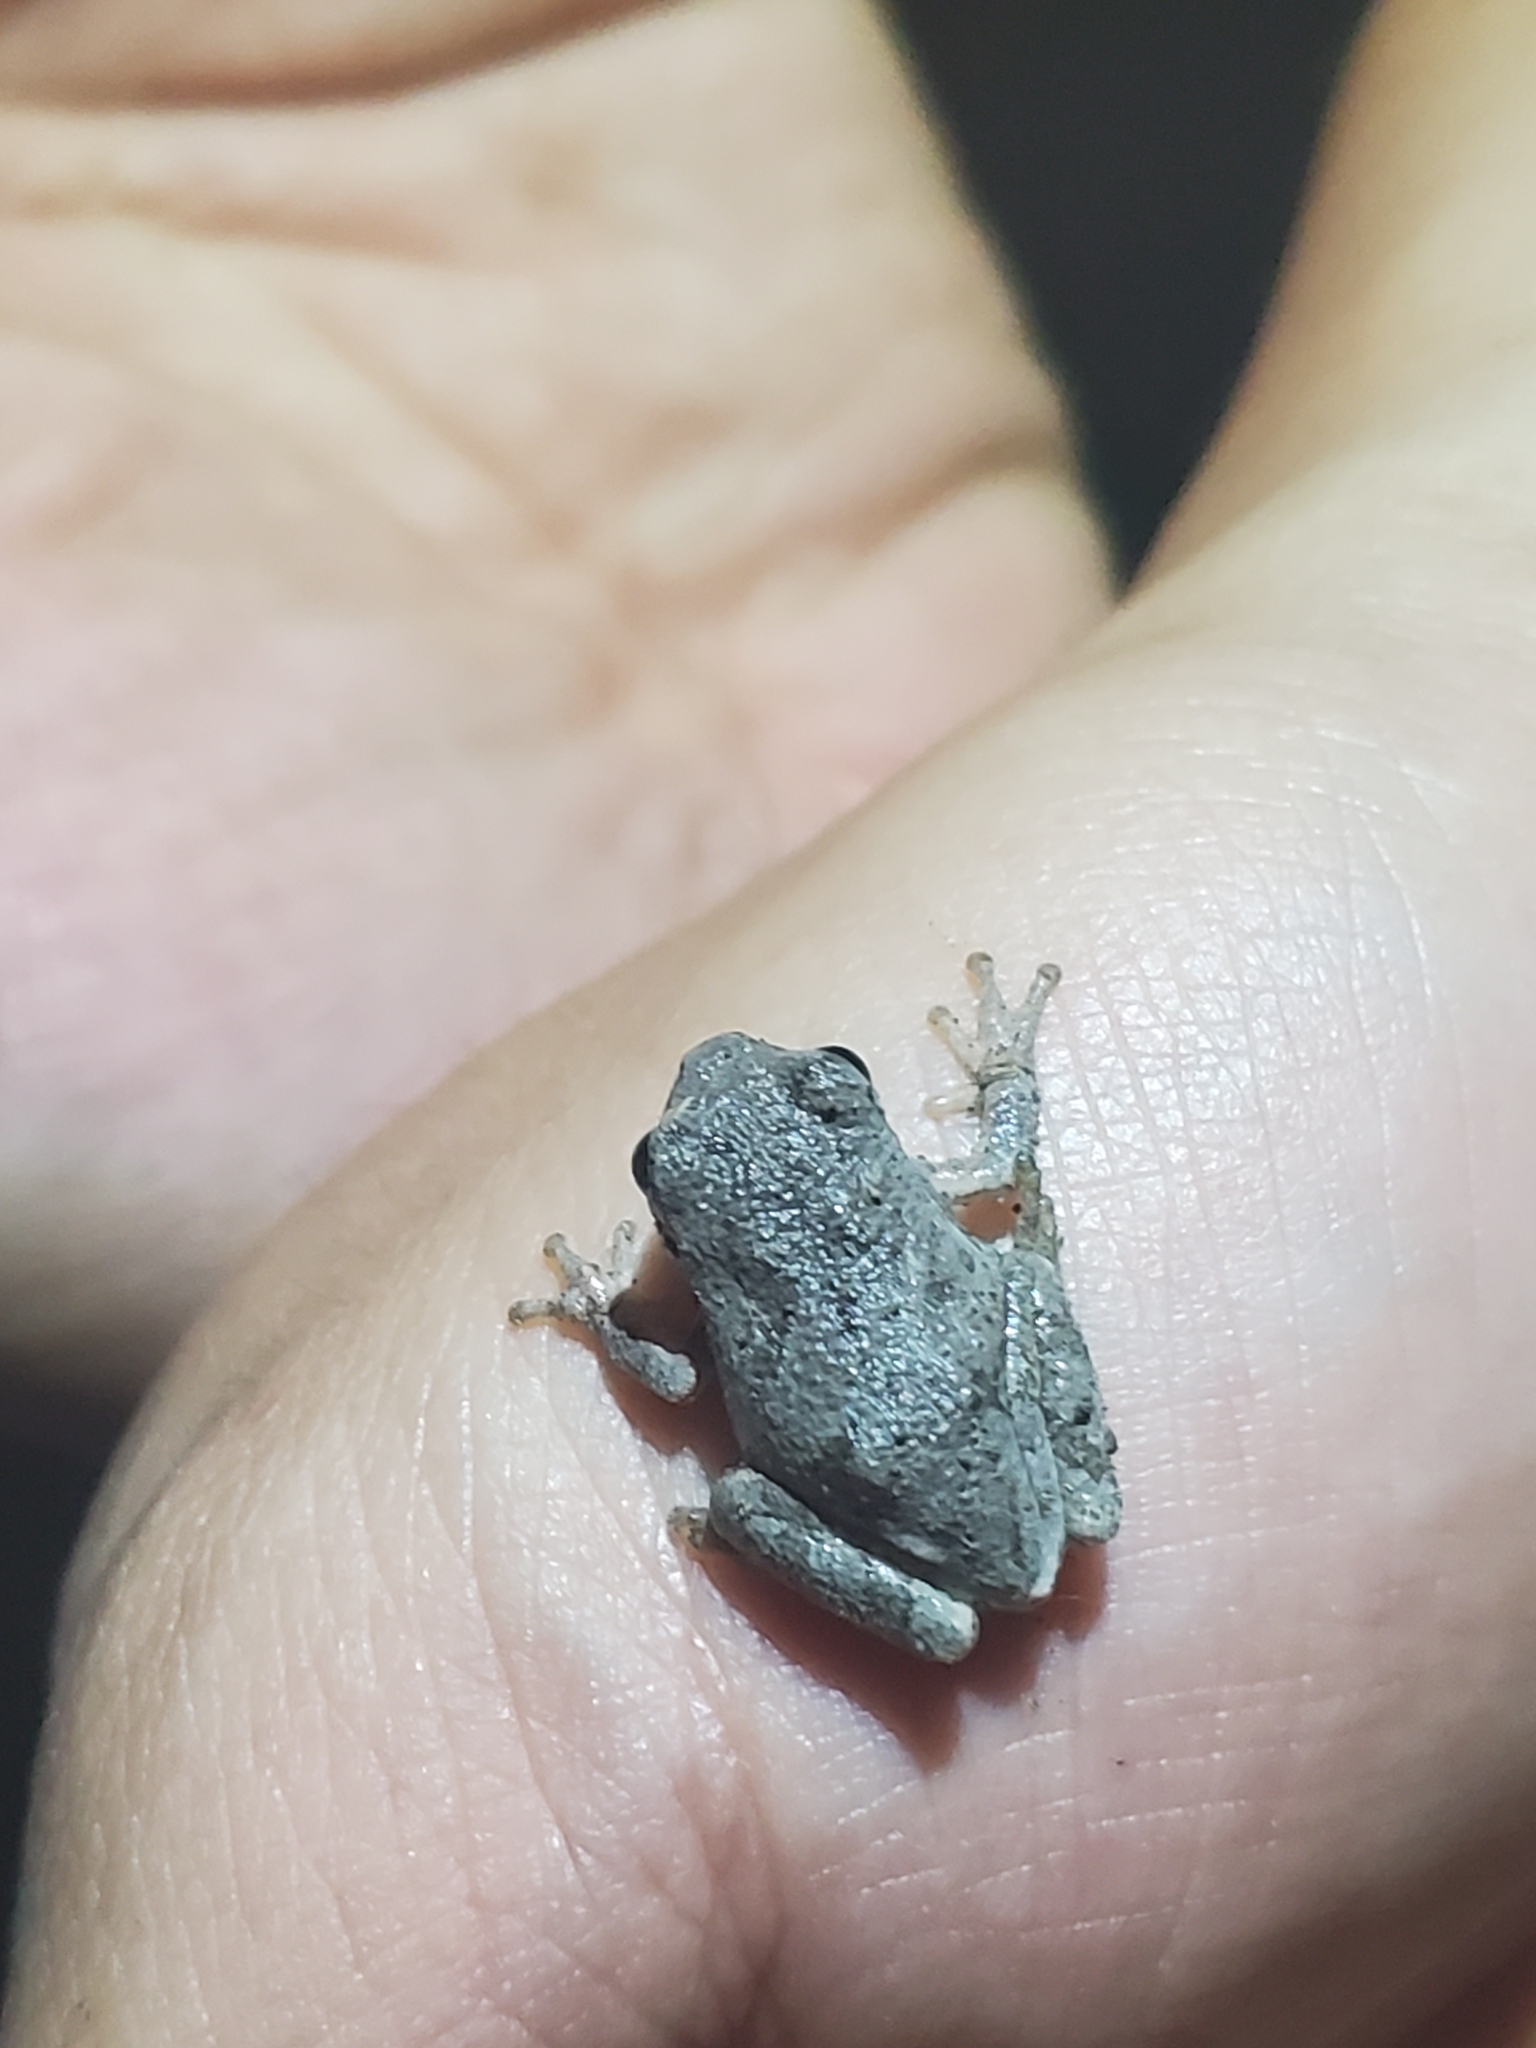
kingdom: Animalia
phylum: Chordata
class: Amphibia
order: Anura
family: Hylidae
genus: Dryophytes
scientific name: Dryophytes chrysoscelis
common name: Cope's gray treefrog
